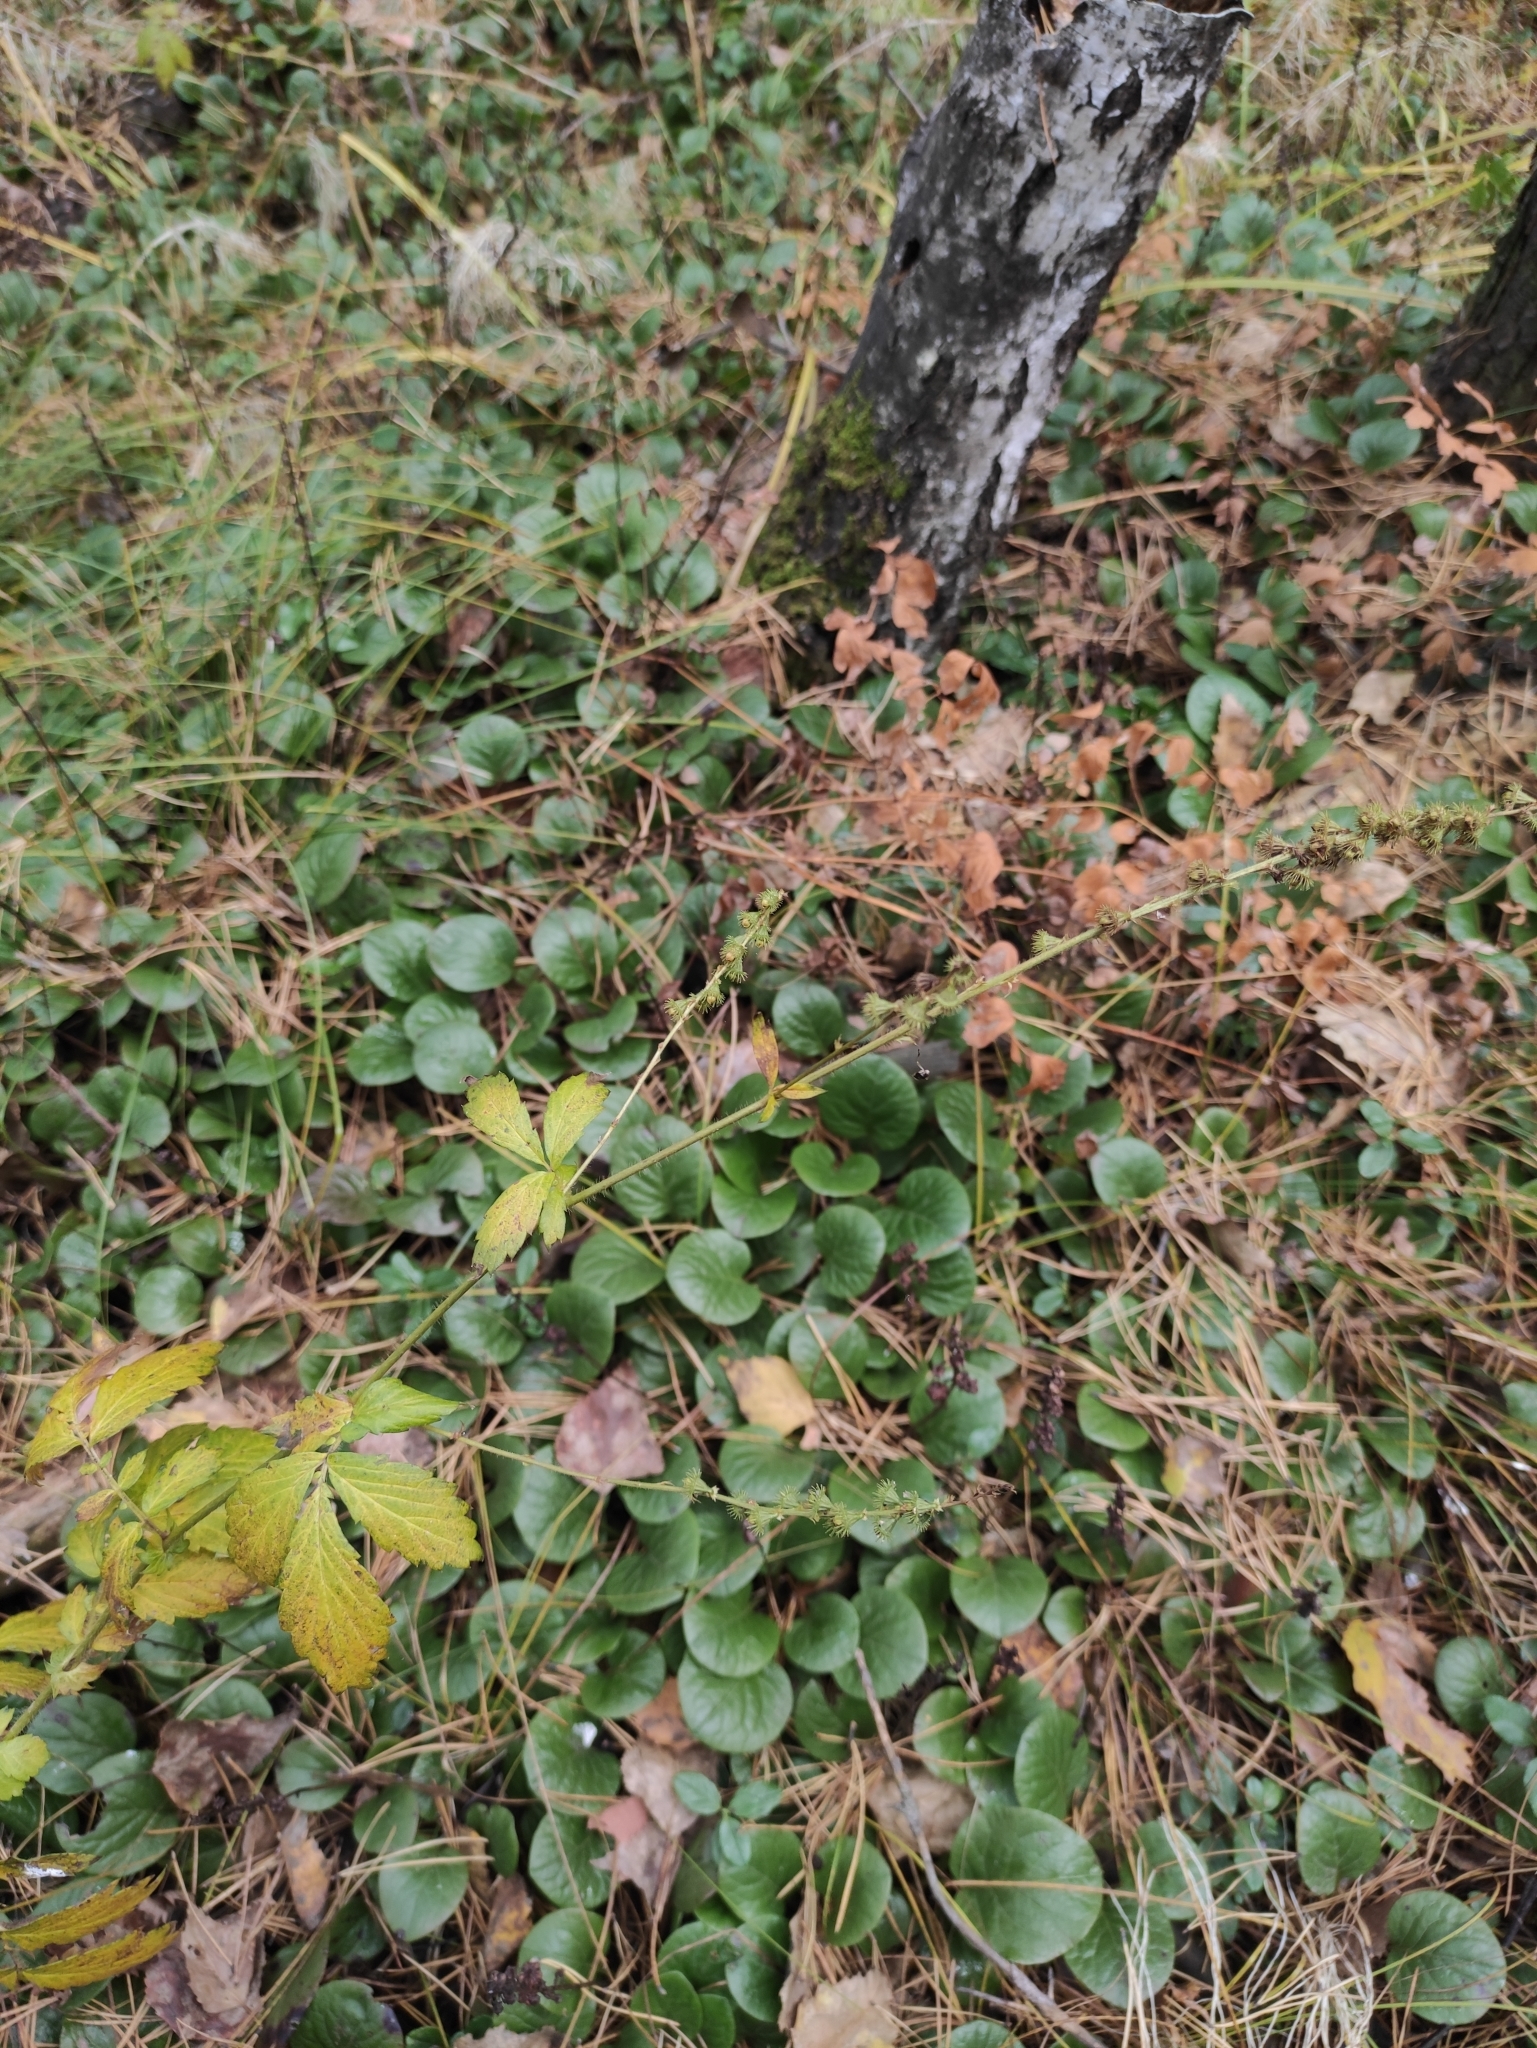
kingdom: Plantae
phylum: Tracheophyta
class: Magnoliopsida
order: Rosales
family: Rosaceae
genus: Agrimonia
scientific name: Agrimonia pilosa
